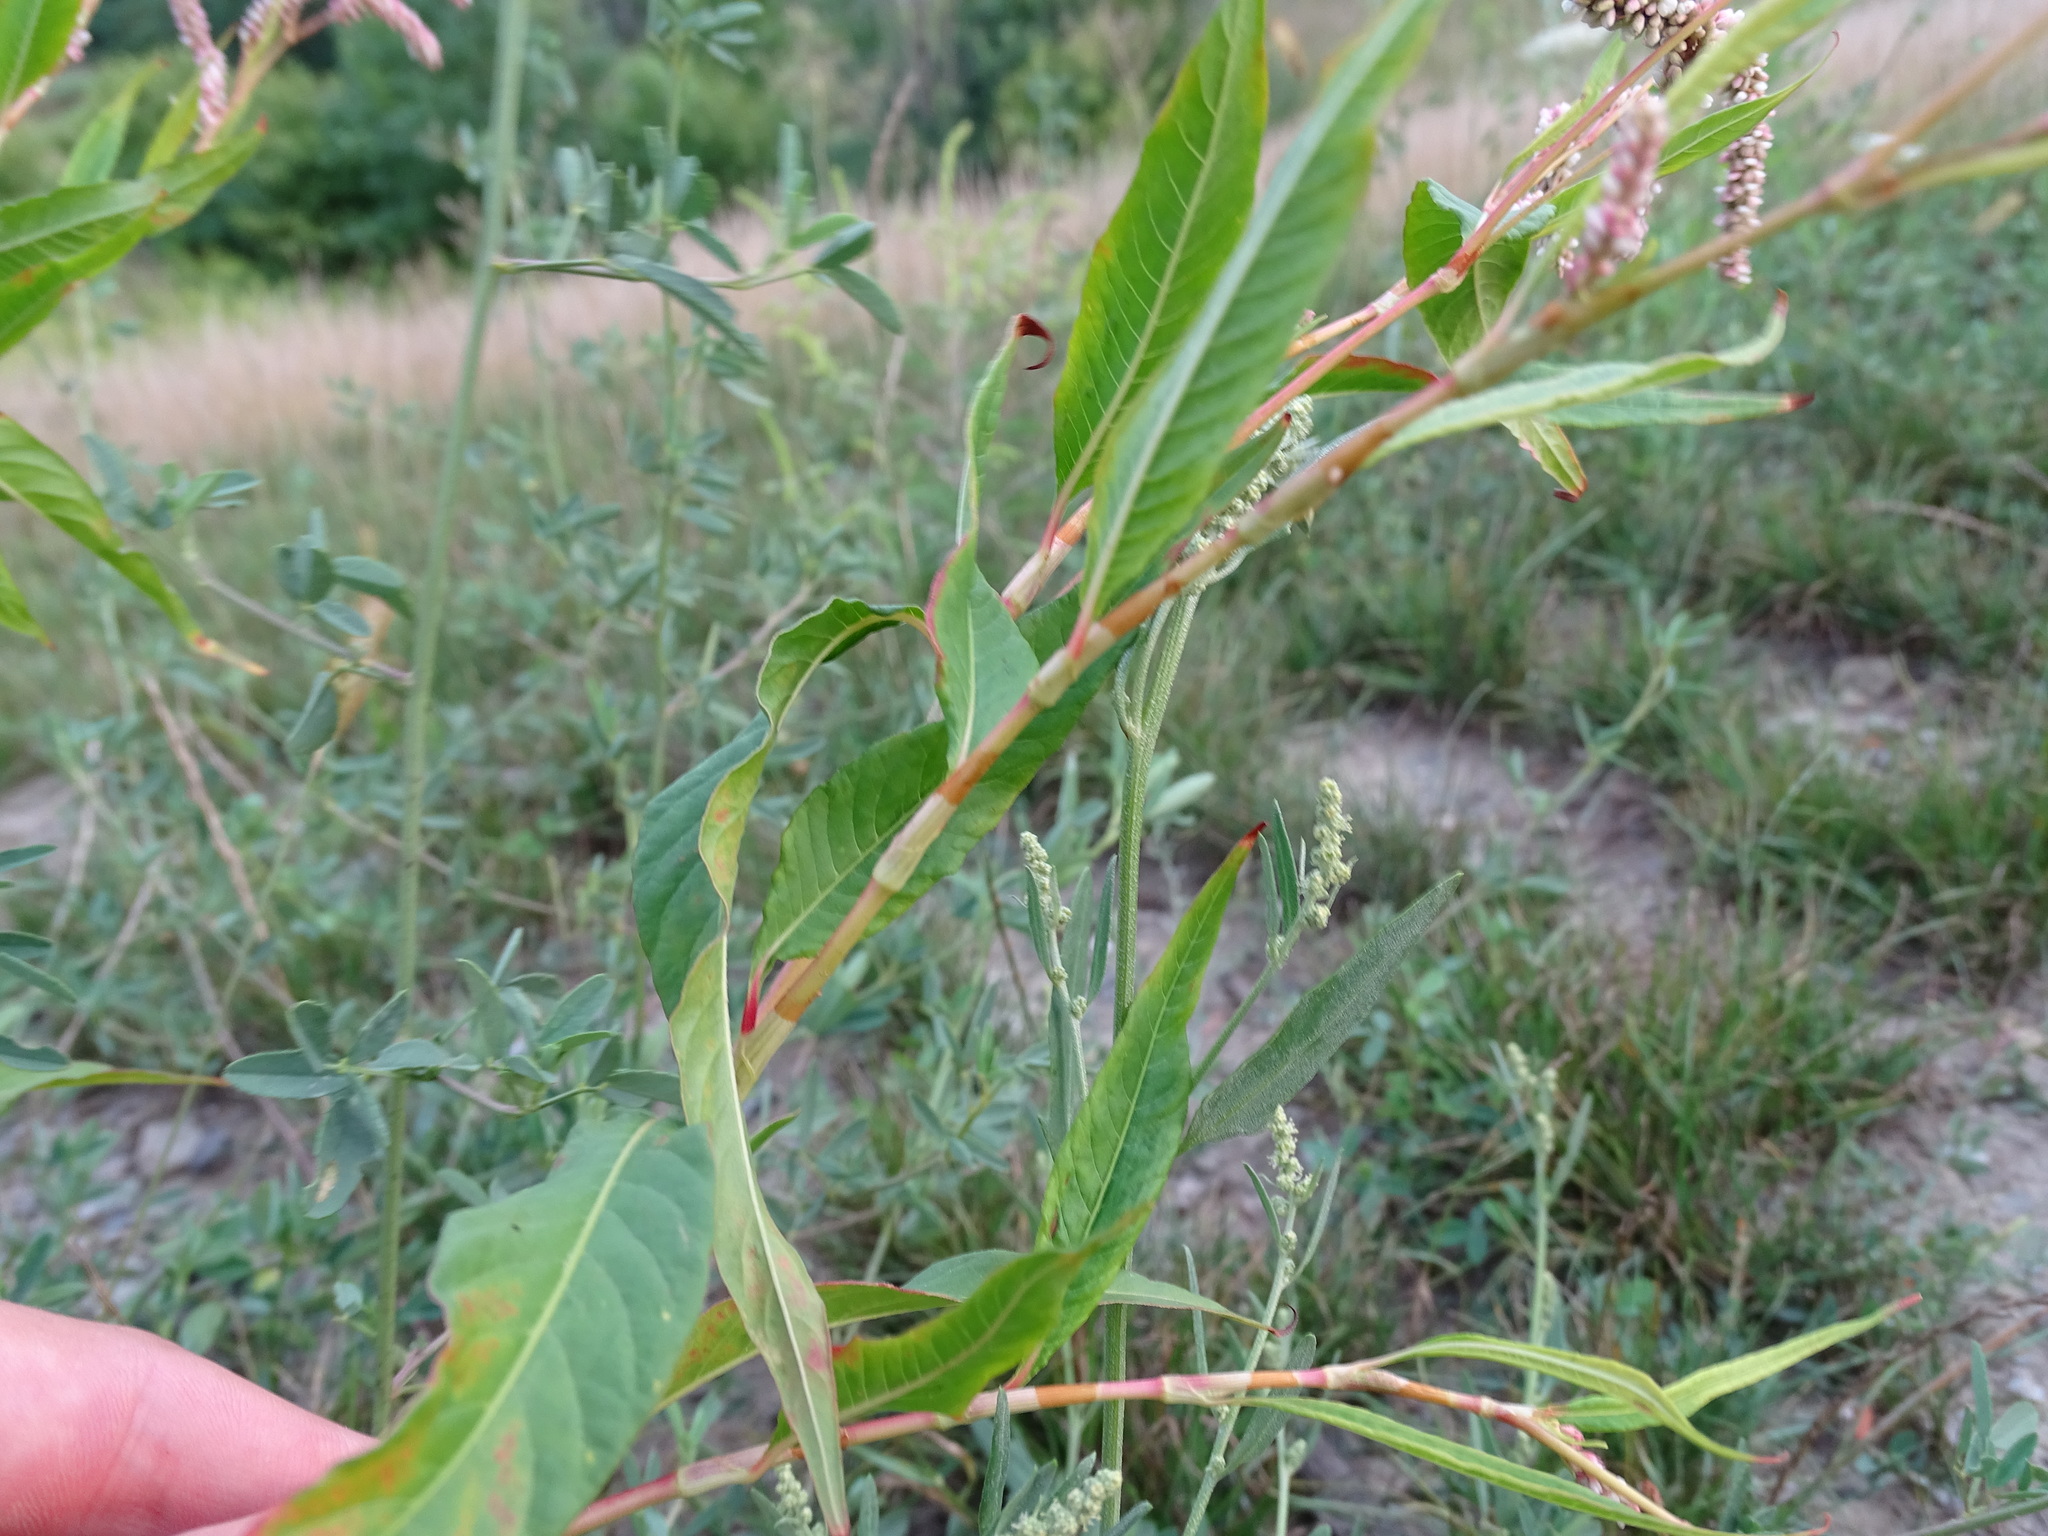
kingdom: Plantae
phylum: Tracheophyta
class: Magnoliopsida
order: Caryophyllales
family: Polygonaceae
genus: Persicaria
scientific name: Persicaria lapathifolia
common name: Curlytop knotweed
